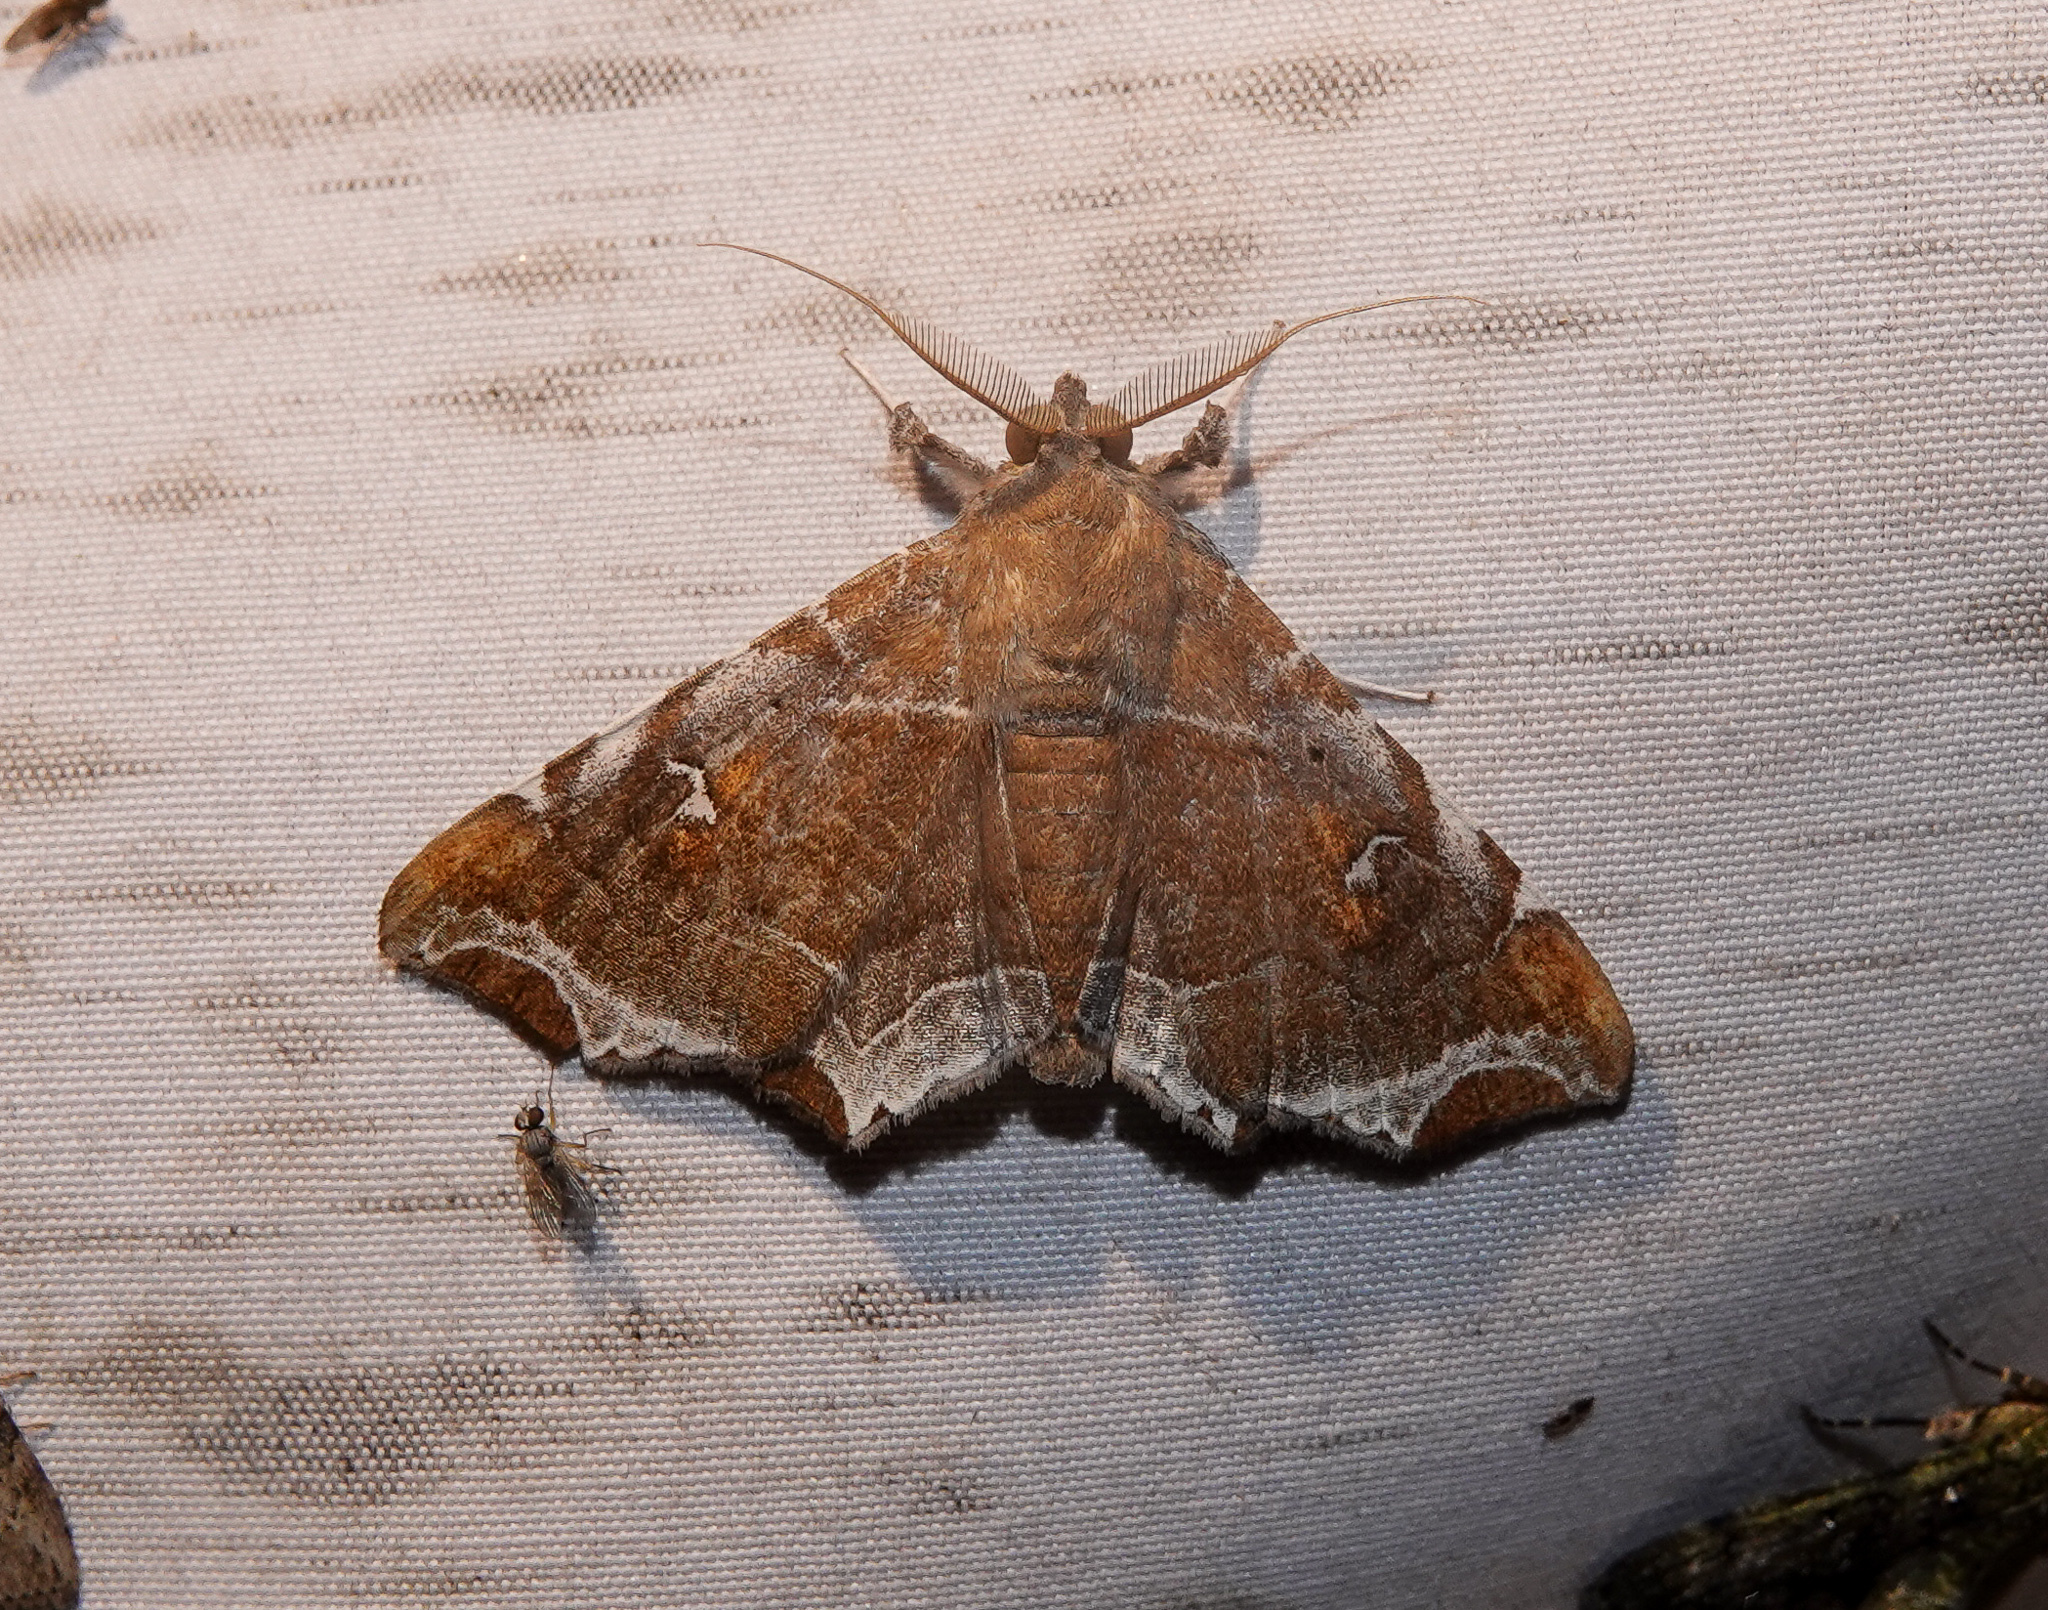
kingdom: Animalia
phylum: Arthropoda
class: Insecta
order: Lepidoptera
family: Erebidae
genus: Episparis
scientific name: Episparis liturata
